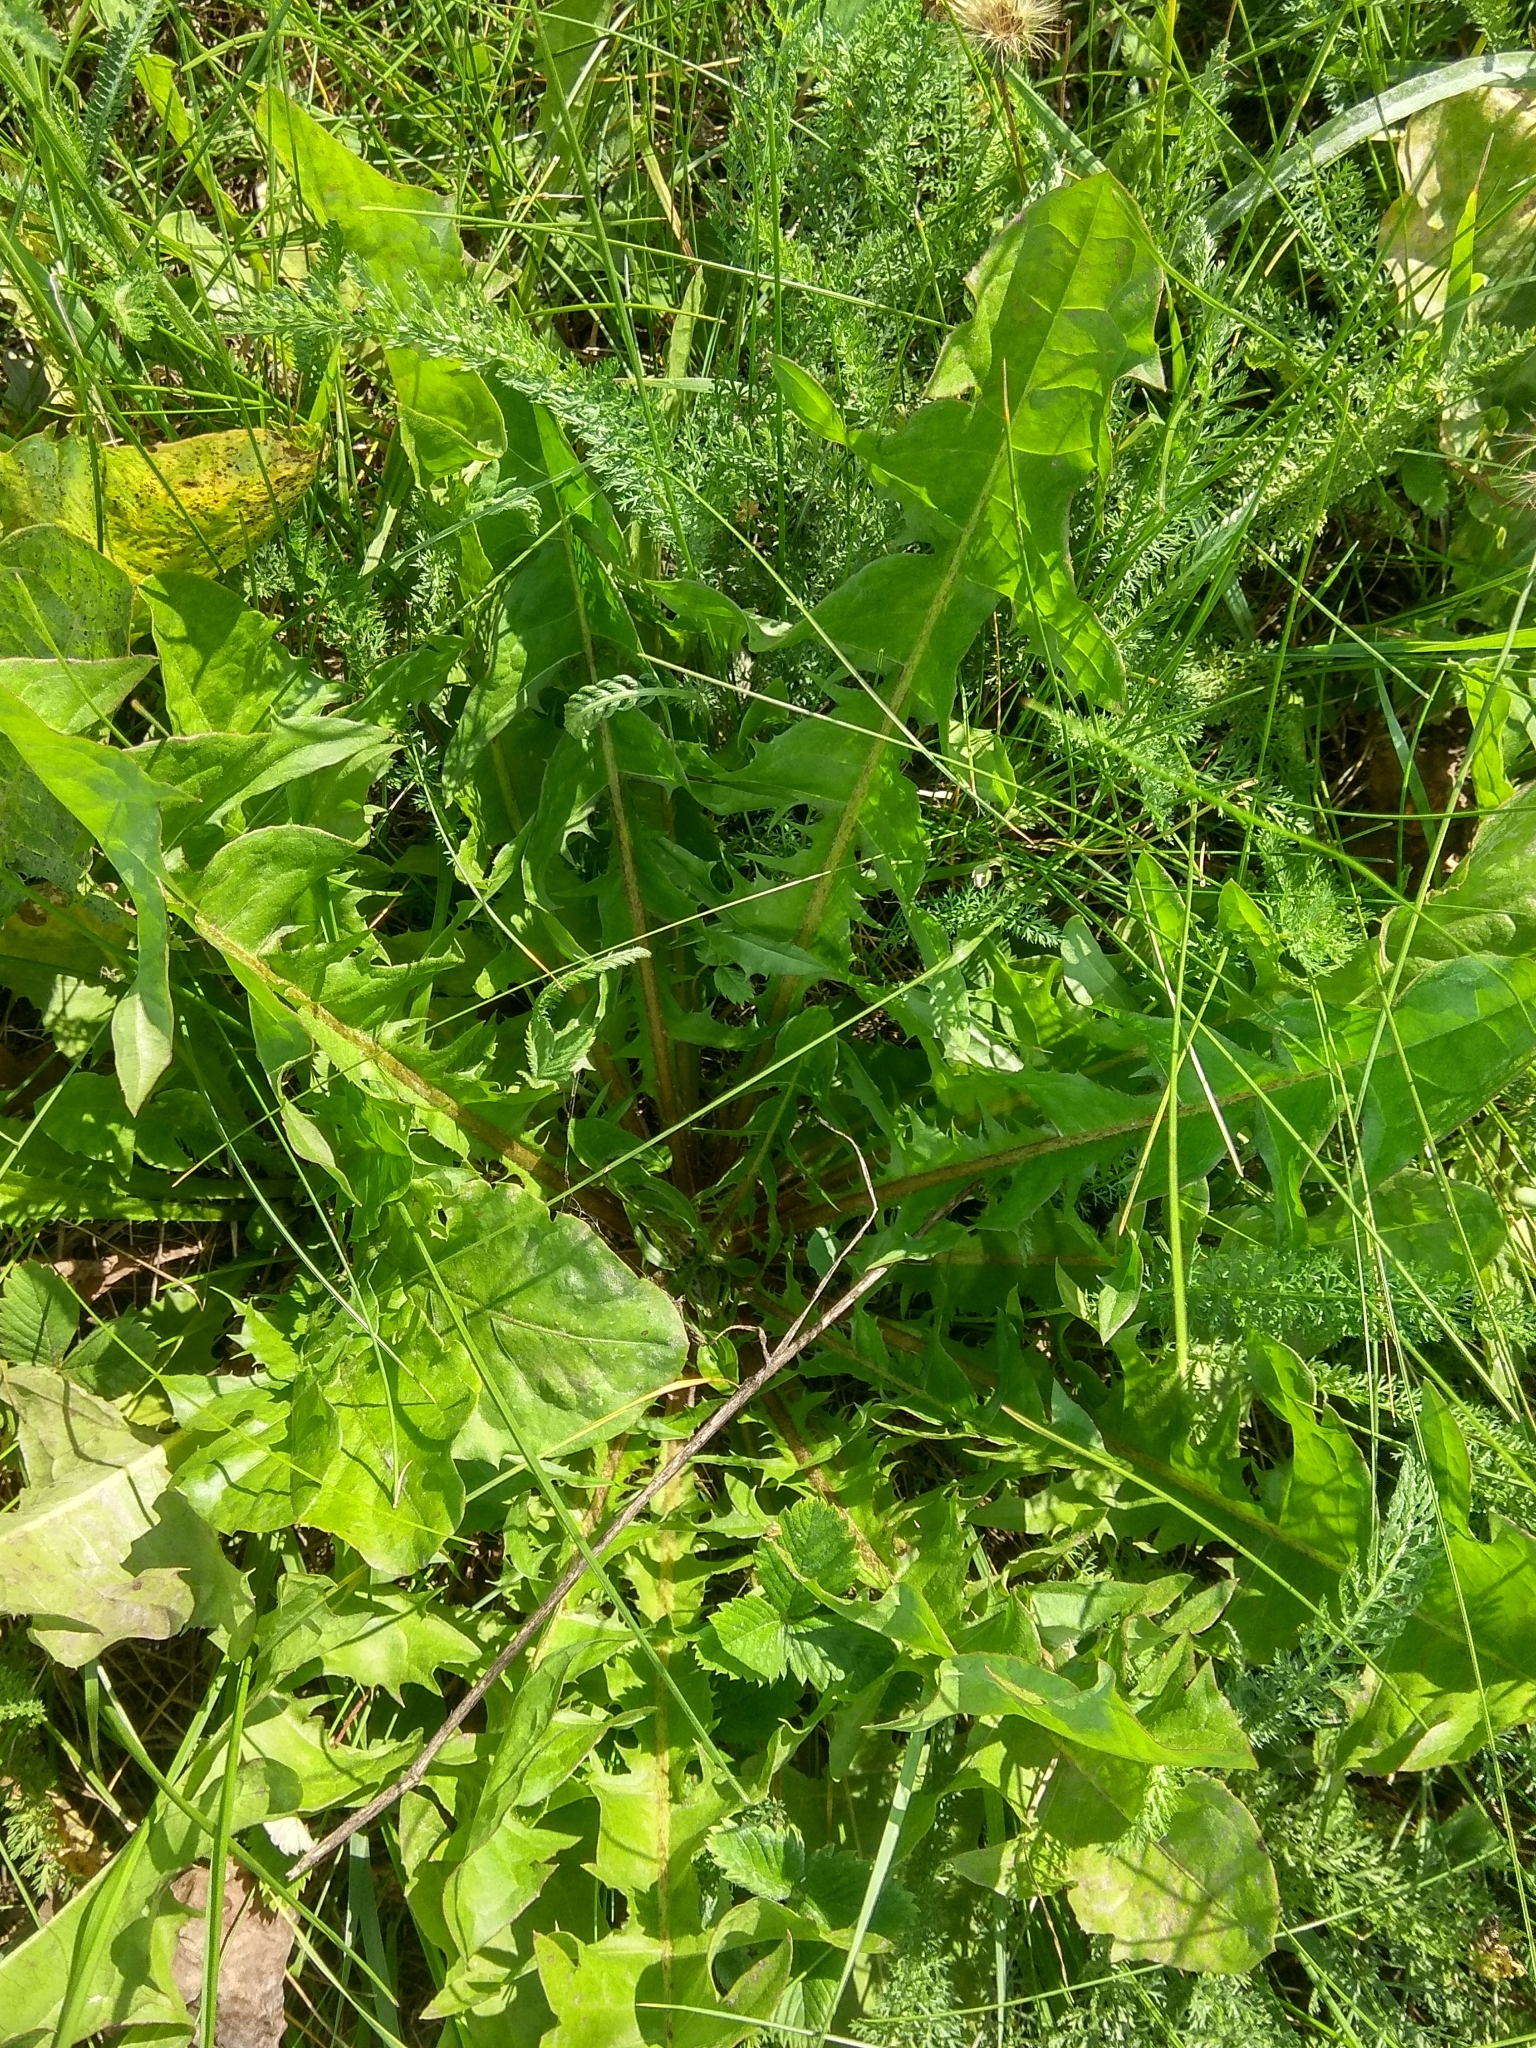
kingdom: Plantae
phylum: Tracheophyta
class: Magnoliopsida
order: Asterales
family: Asteraceae
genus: Taraxacum
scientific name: Taraxacum officinale
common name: Common dandelion
